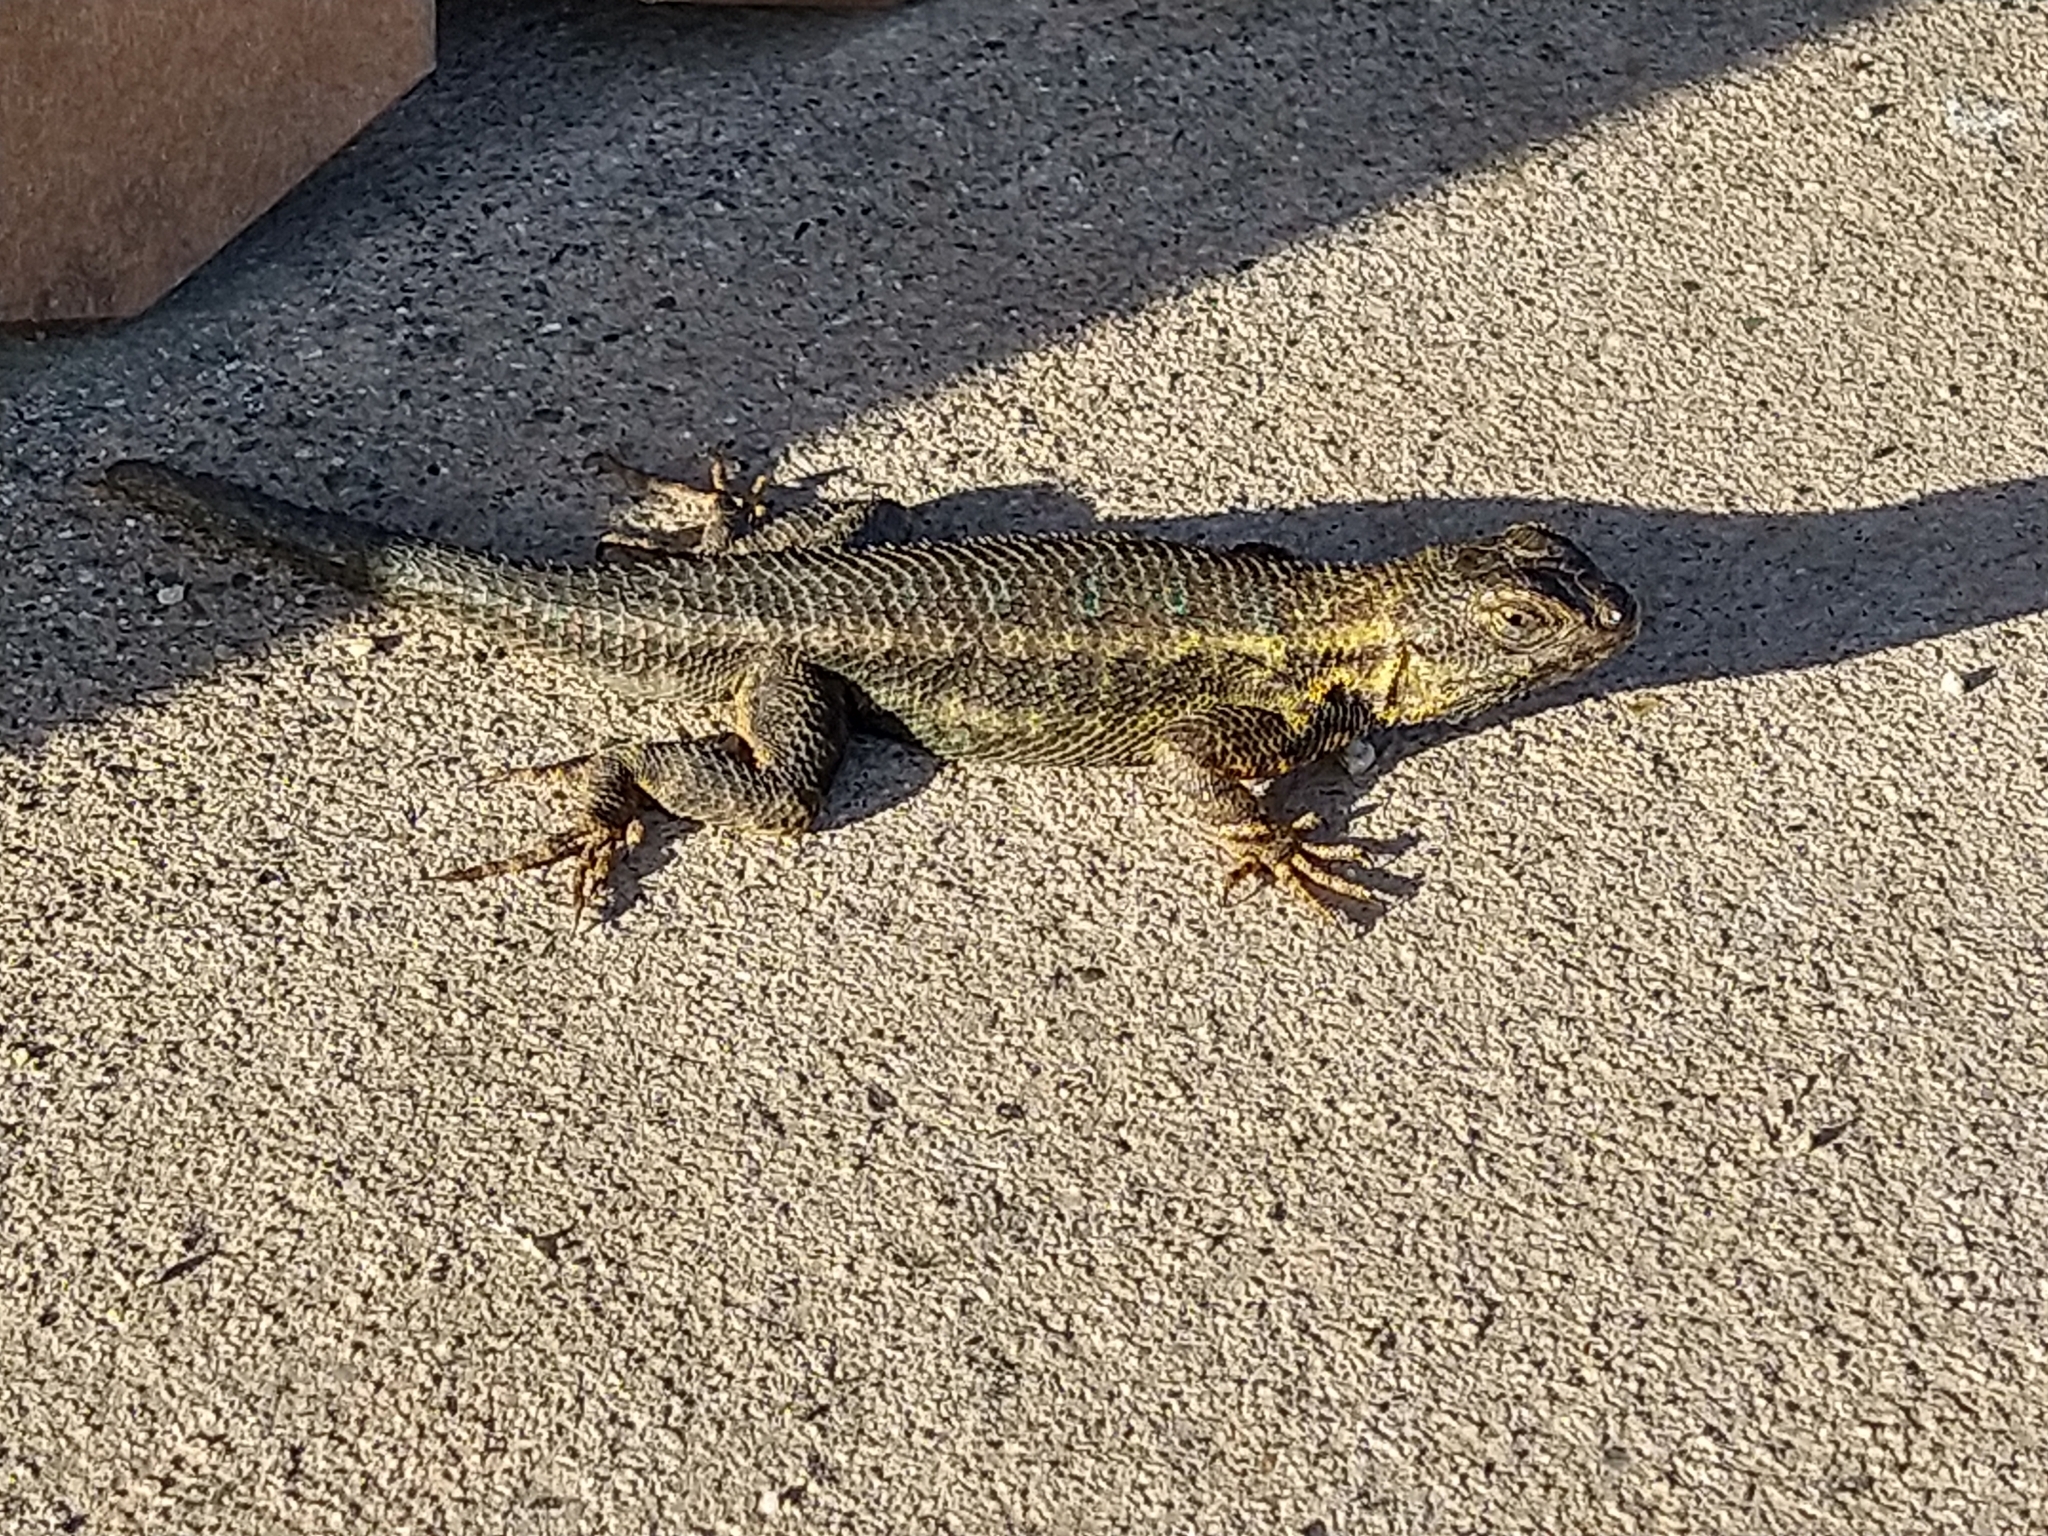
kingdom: Animalia
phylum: Chordata
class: Squamata
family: Phrynosomatidae
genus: Sceloporus
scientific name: Sceloporus occidentalis
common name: Western fence lizard
